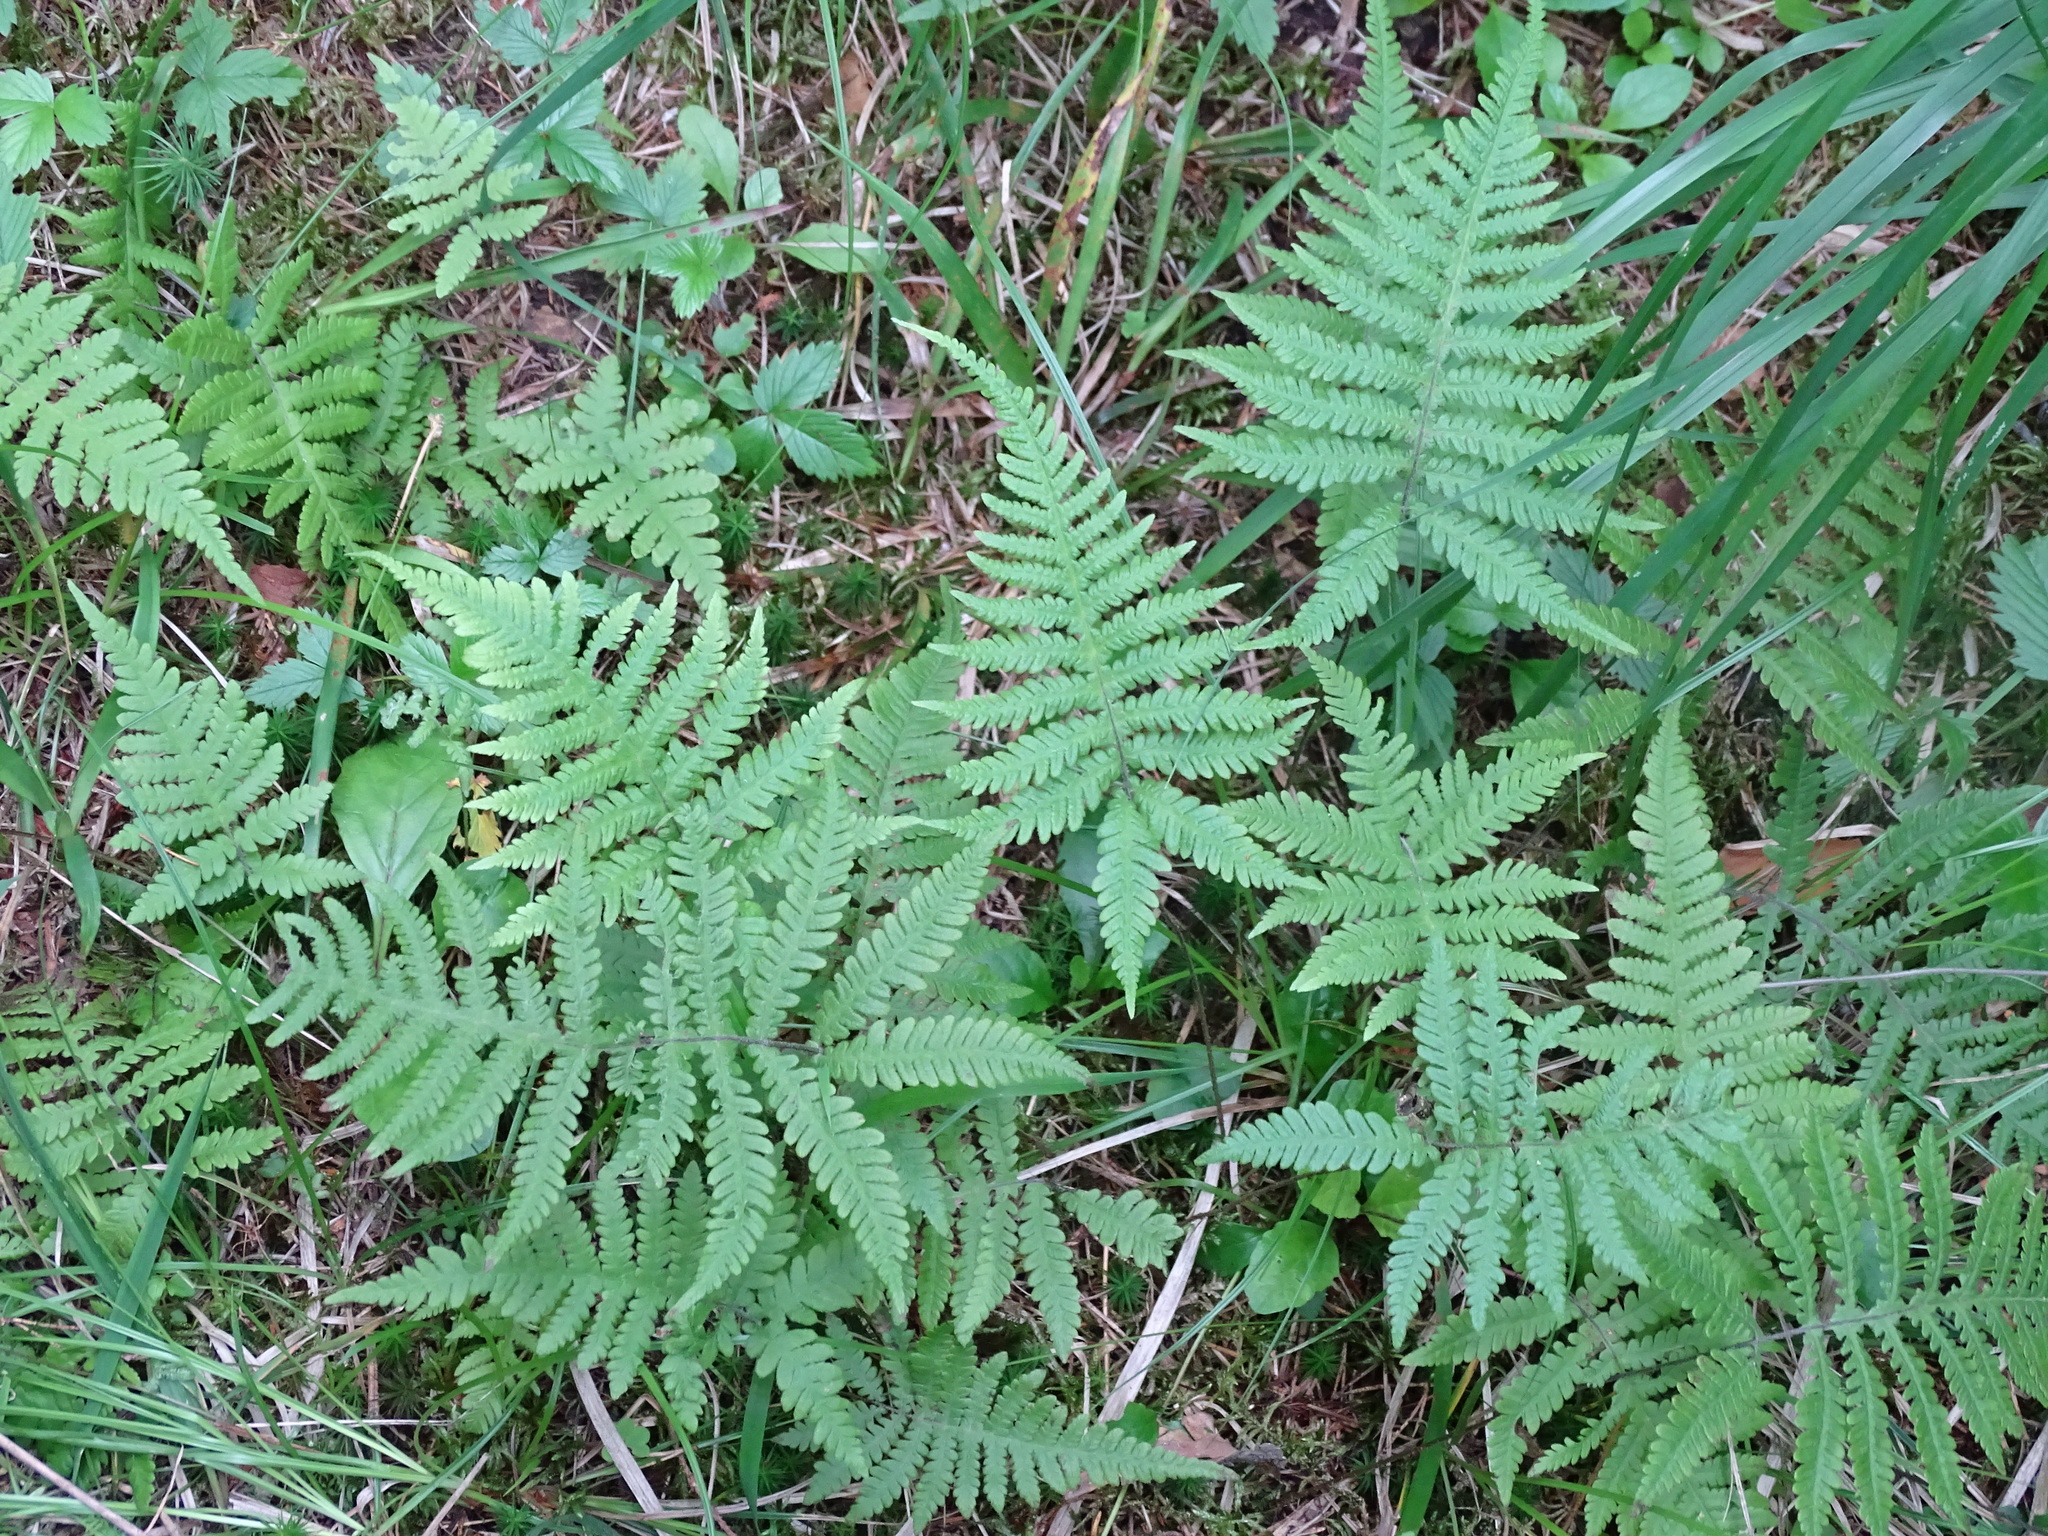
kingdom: Plantae
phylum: Tracheophyta
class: Polypodiopsida
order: Polypodiales
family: Thelypteridaceae
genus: Phegopteris
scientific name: Phegopteris connectilis
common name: Beech fern
